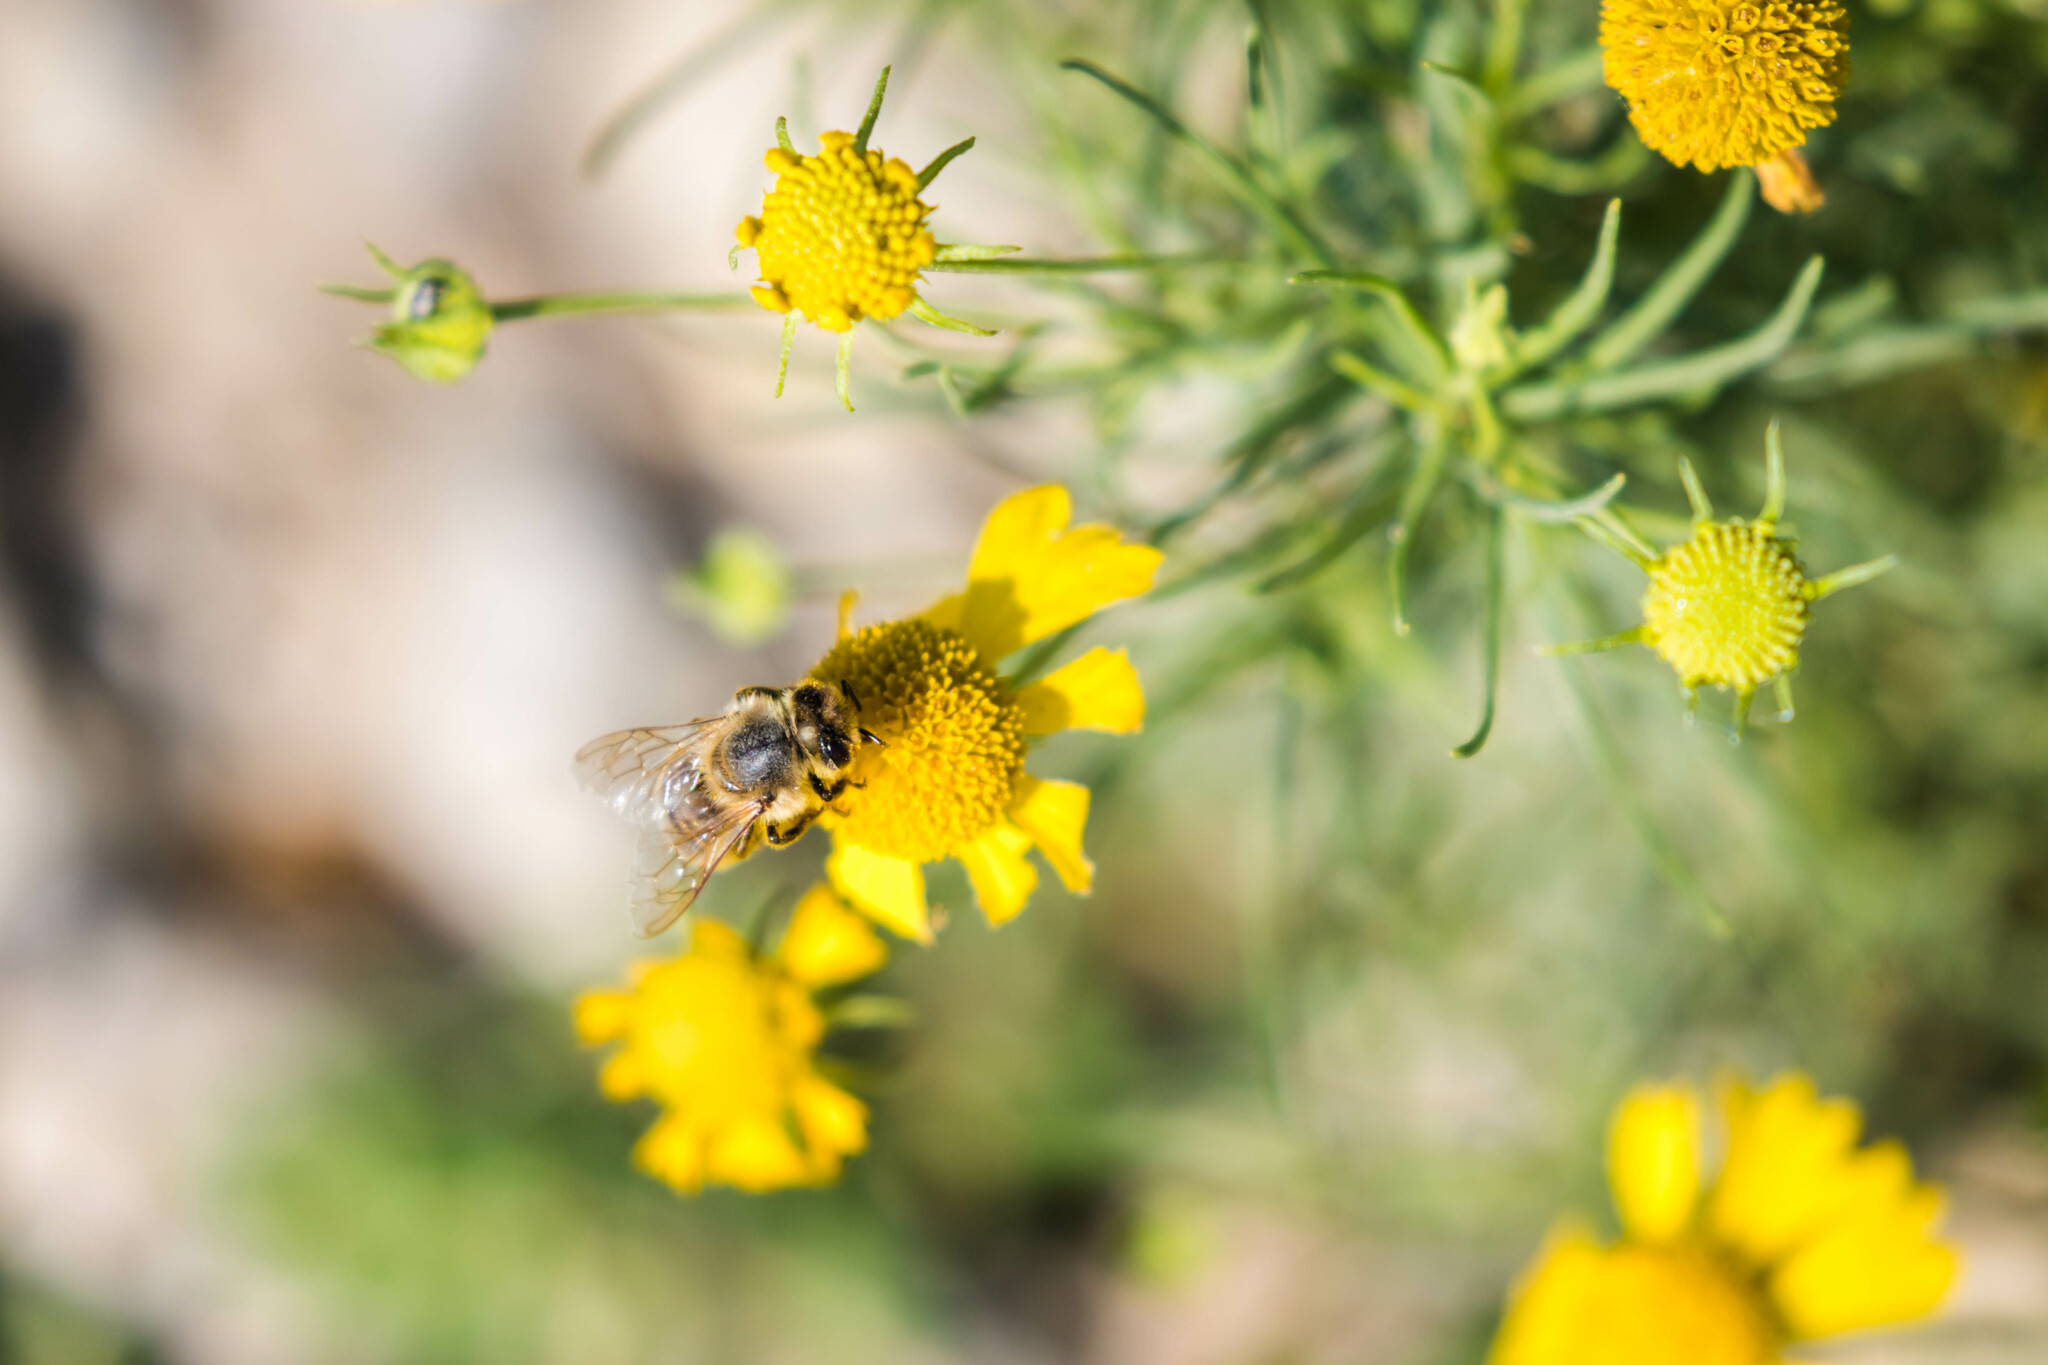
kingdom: Animalia
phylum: Arthropoda
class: Insecta
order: Hymenoptera
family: Apidae
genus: Apis
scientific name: Apis mellifera
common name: Honey bee
